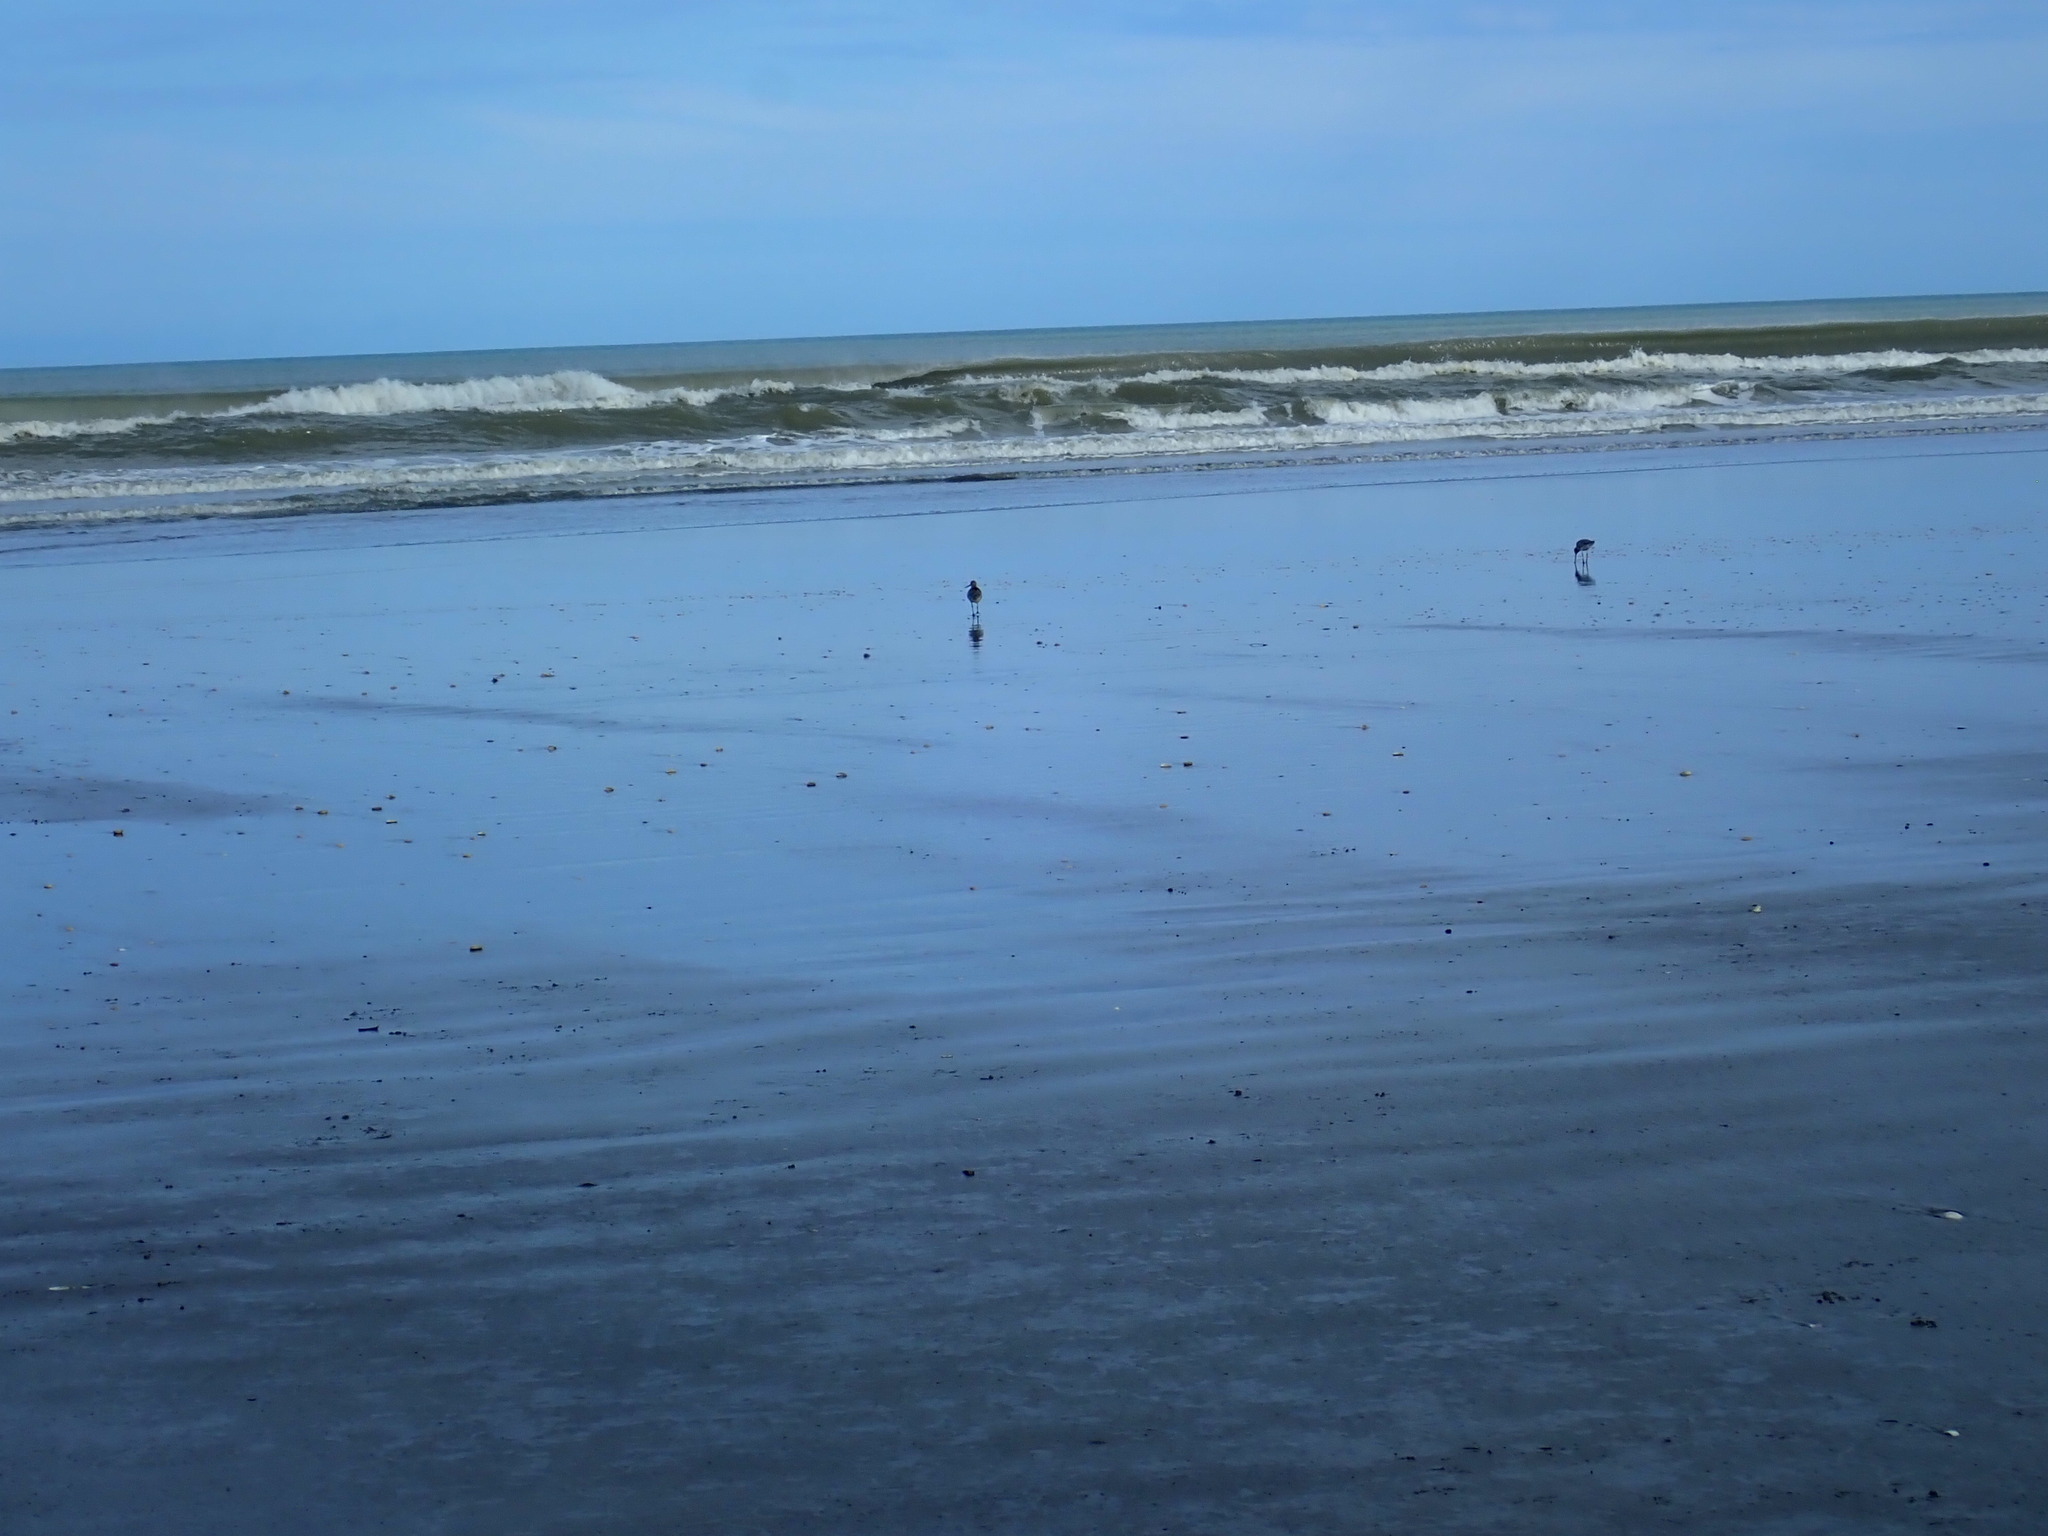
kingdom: Animalia
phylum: Chordata
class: Aves
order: Charadriiformes
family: Scolopacidae
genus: Limosa
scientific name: Limosa lapponica
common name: Bar-tailed godwit
